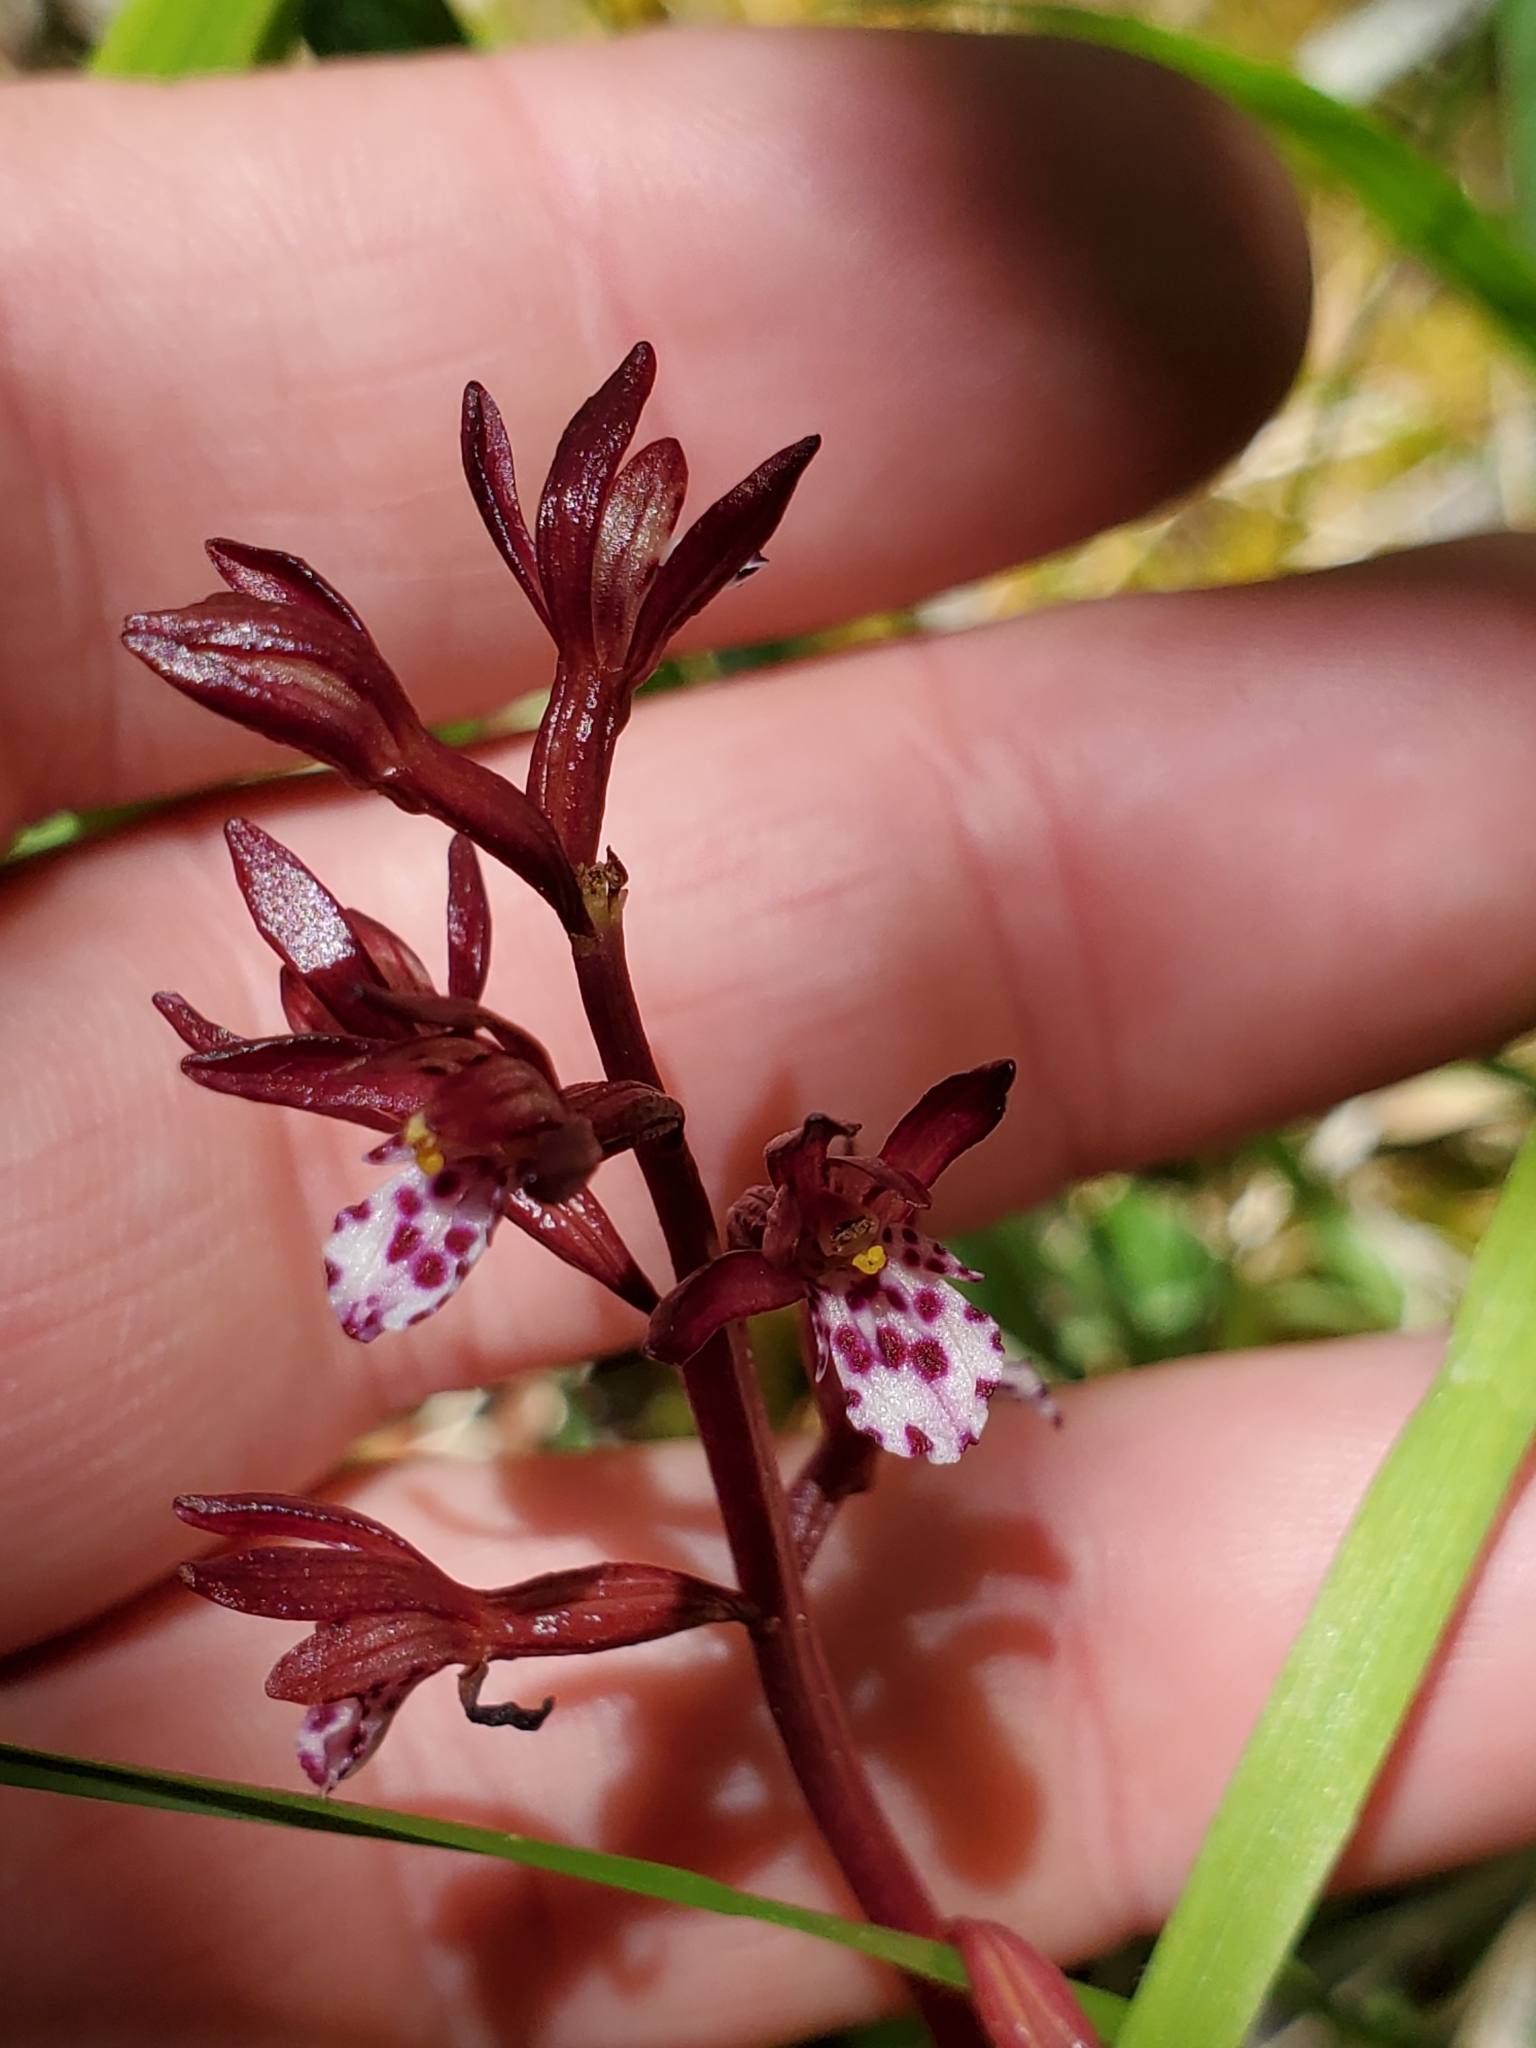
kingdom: Plantae
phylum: Tracheophyta
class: Liliopsida
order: Asparagales
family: Orchidaceae
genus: Corallorhiza
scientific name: Corallorhiza maculata
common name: Spotted coralroot
